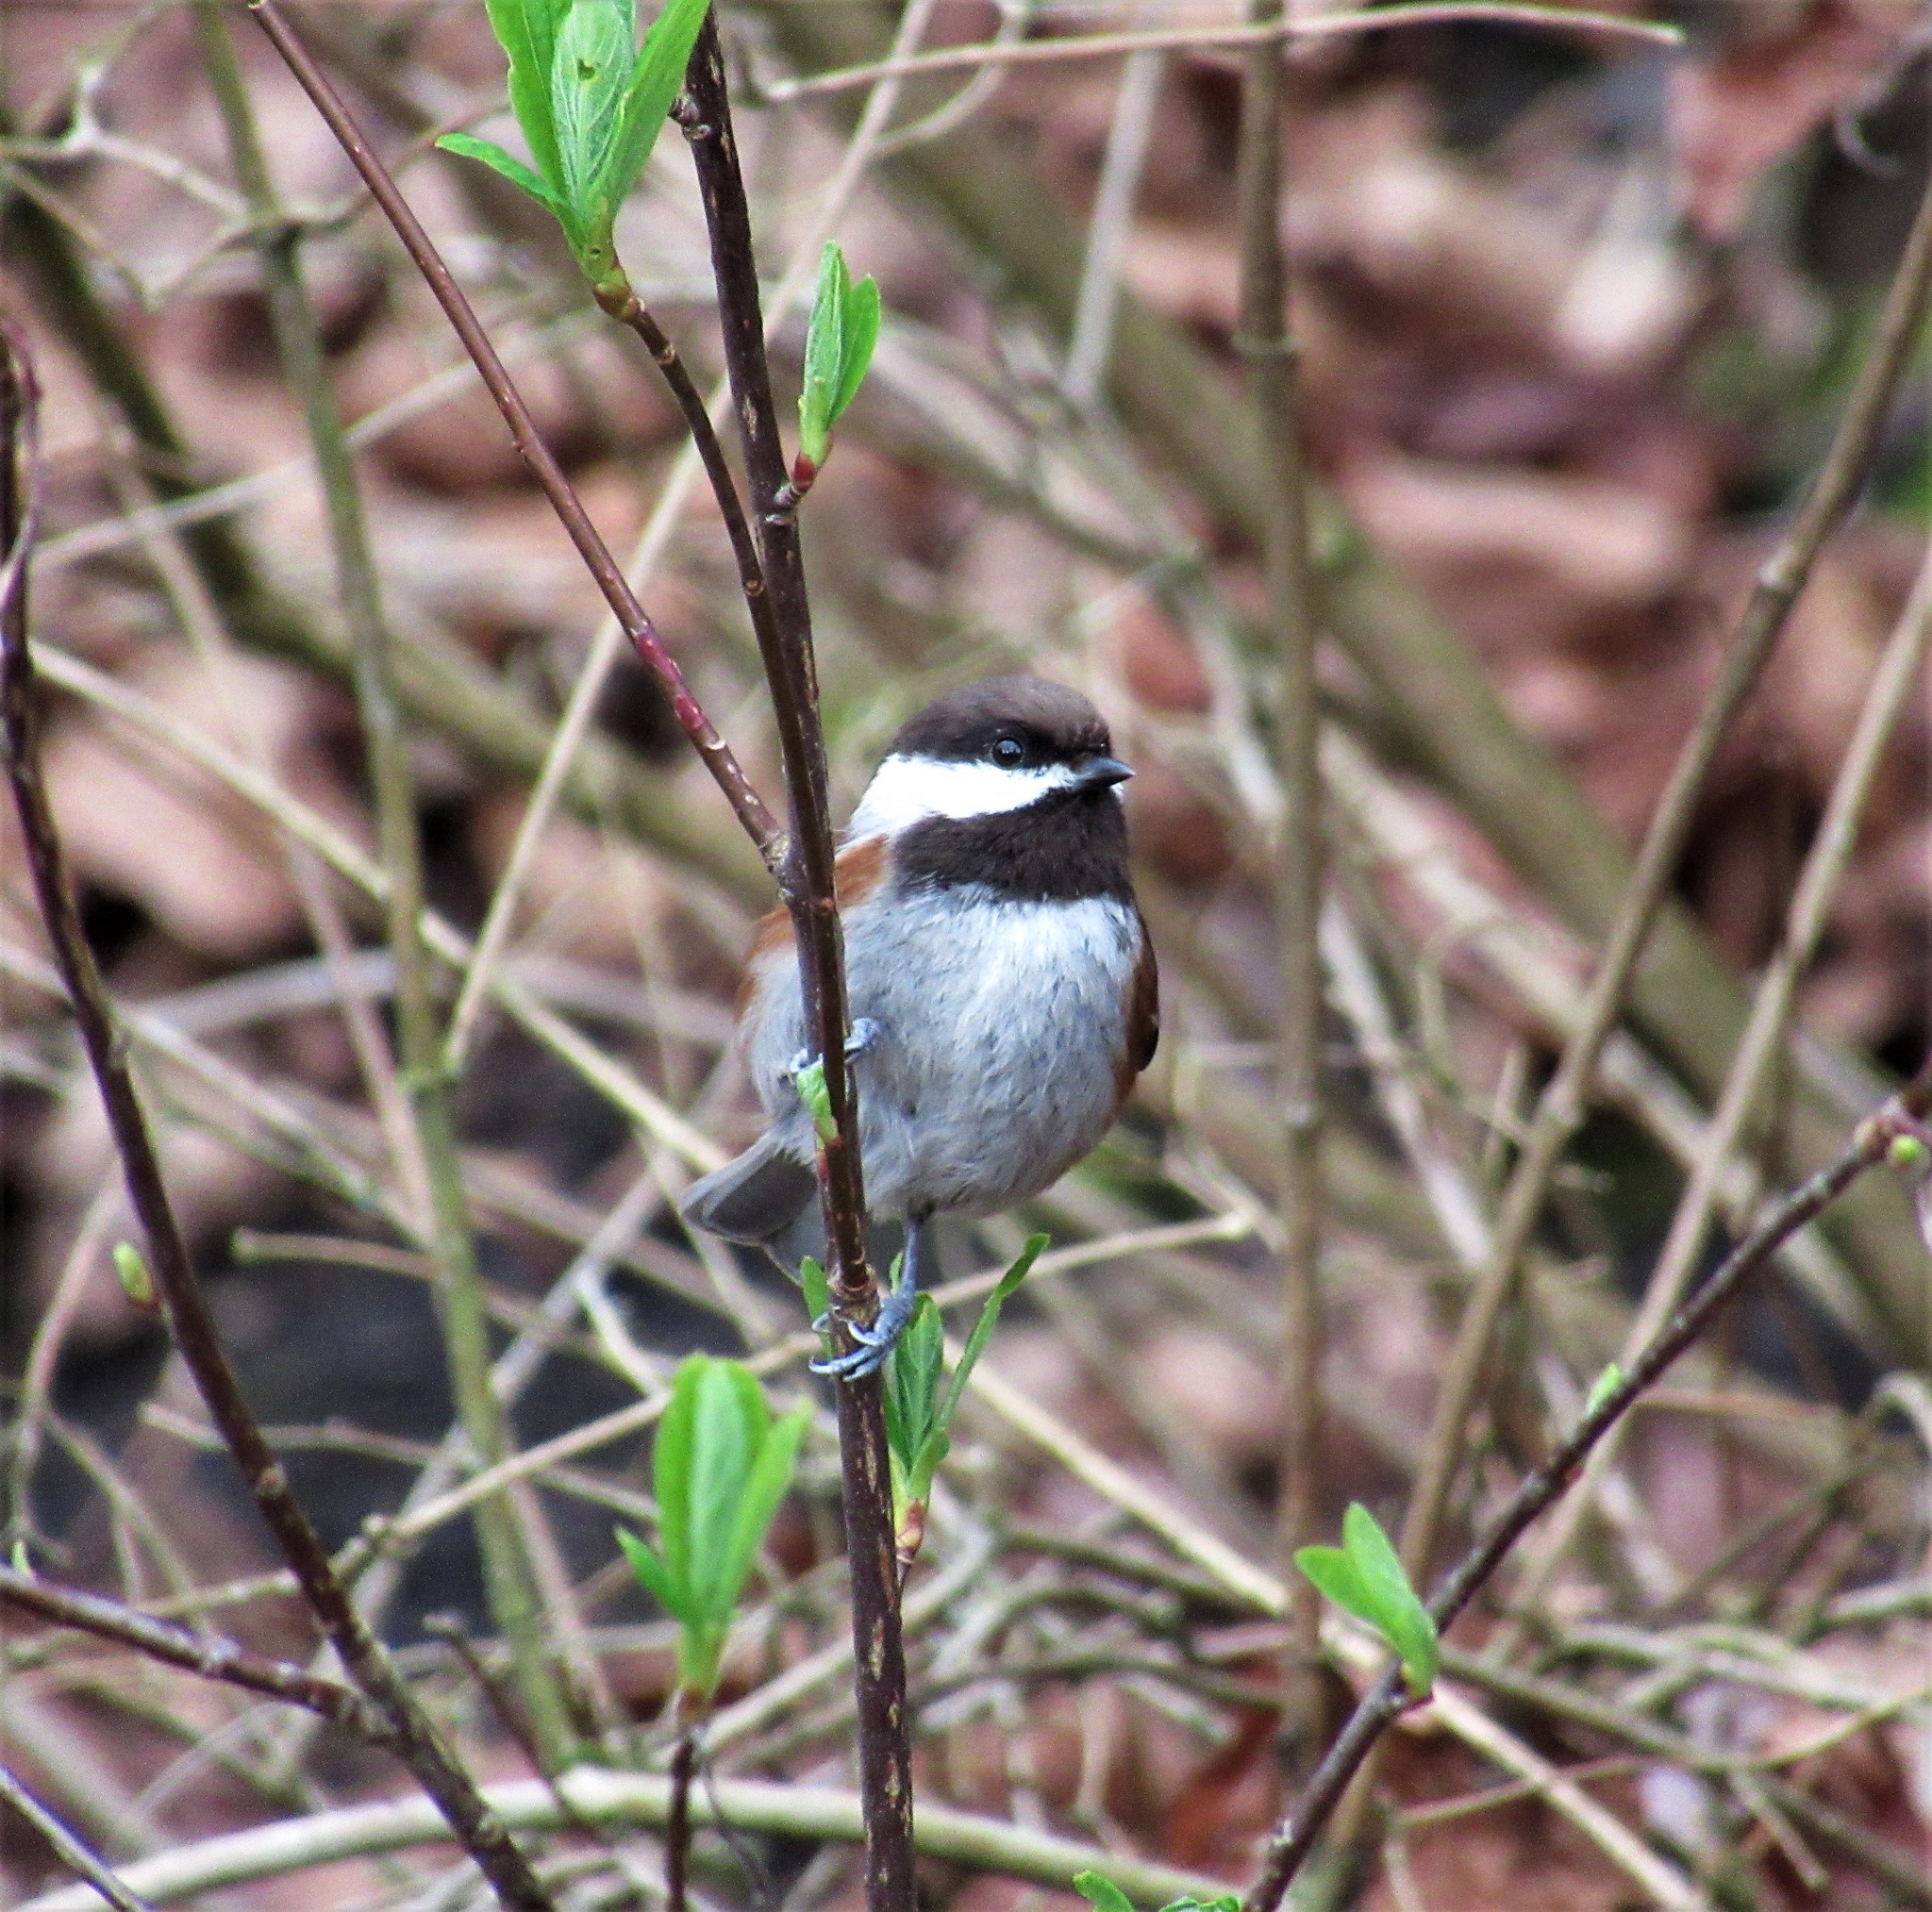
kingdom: Animalia
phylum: Chordata
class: Aves
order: Passeriformes
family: Paridae
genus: Poecile
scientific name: Poecile rufescens
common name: Chestnut-backed chickadee
